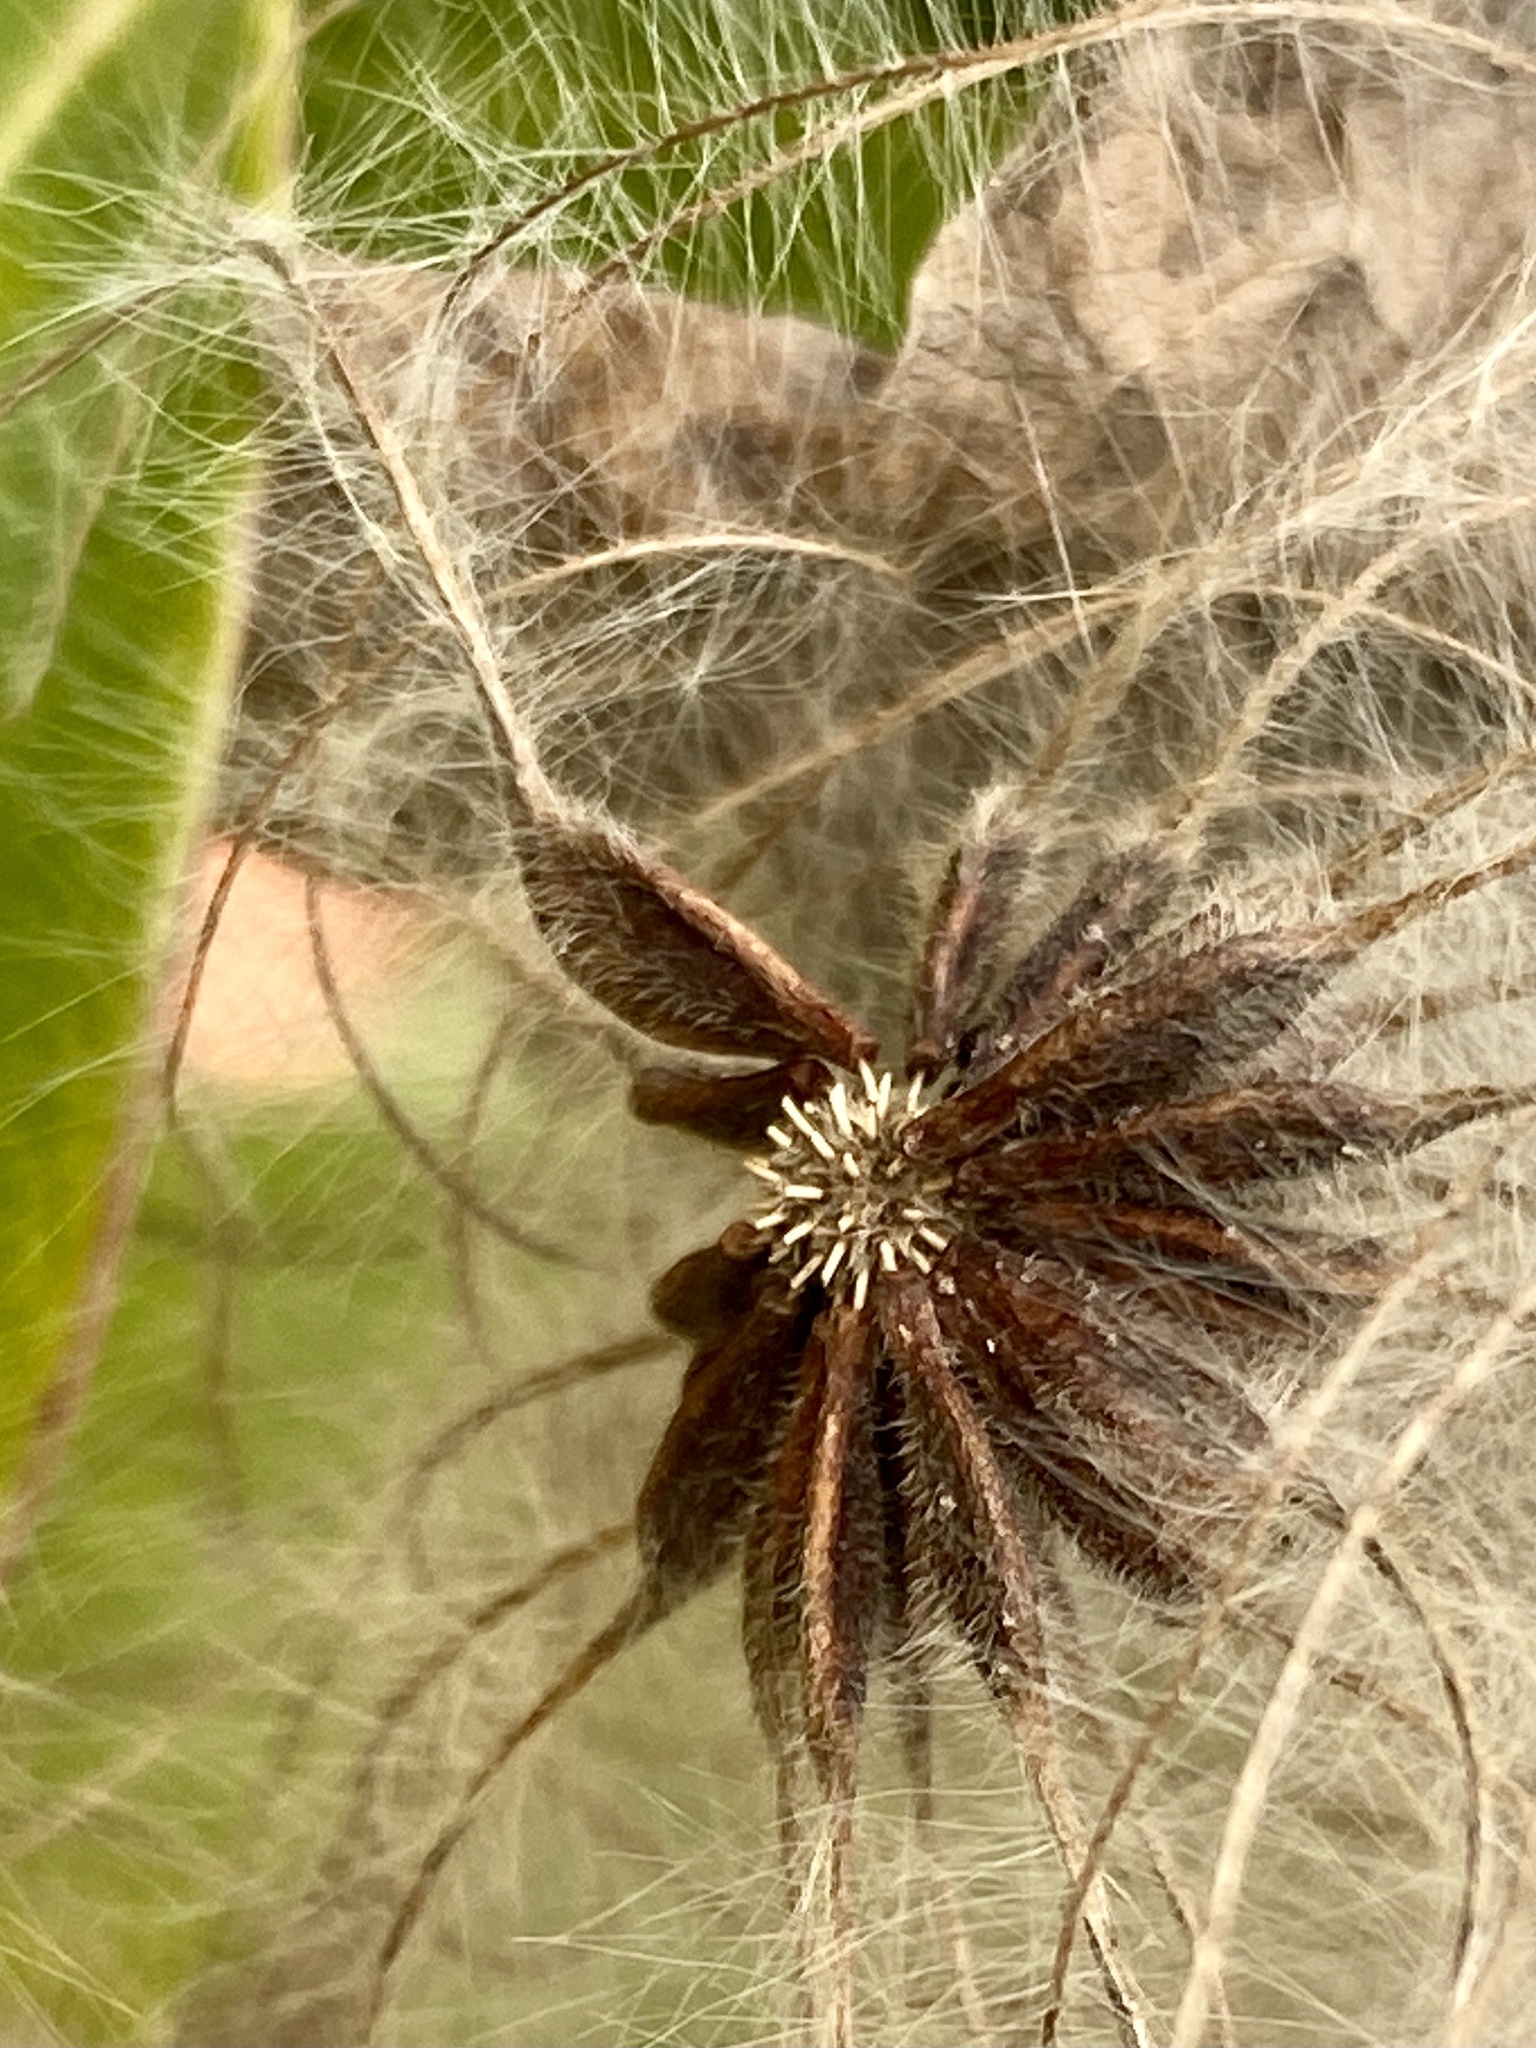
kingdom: Plantae
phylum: Tracheophyta
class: Magnoliopsida
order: Ranunculales
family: Ranunculaceae
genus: Clematis
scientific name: Clematis virginiana
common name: Virgin's-bower
